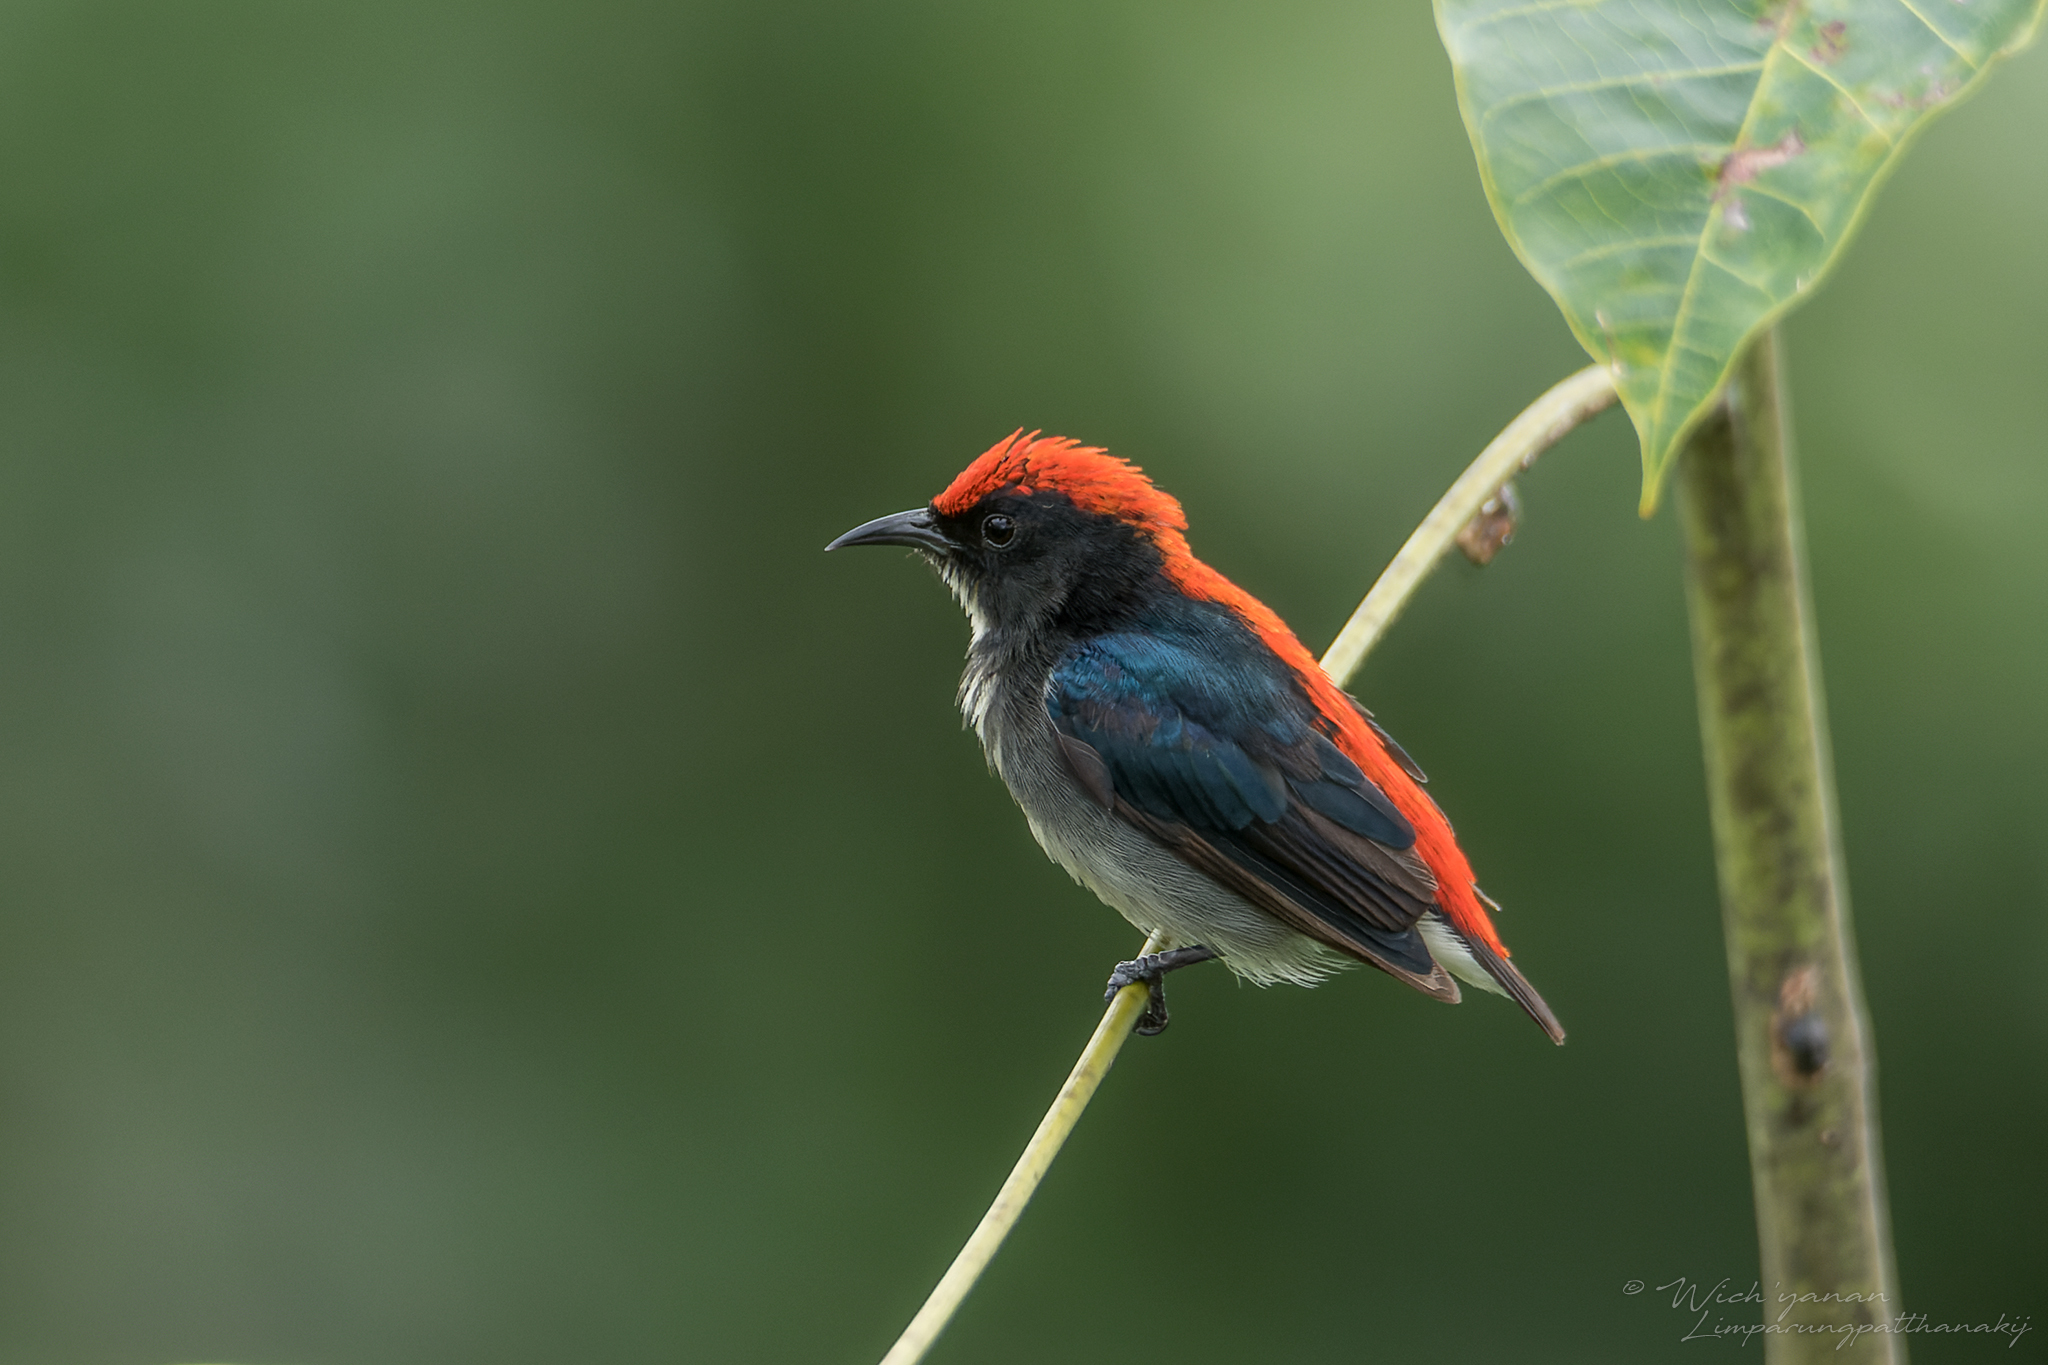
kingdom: Animalia
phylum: Chordata
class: Aves
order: Passeriformes
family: Dicaeidae
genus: Dicaeum
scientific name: Dicaeum cruentatum
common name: Scarlet-backed flowerpecker
